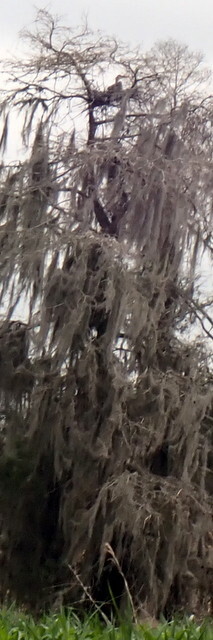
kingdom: Animalia
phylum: Chordata
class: Aves
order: Pelecaniformes
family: Ardeidae
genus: Ardea
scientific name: Ardea herodias
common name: Great blue heron
